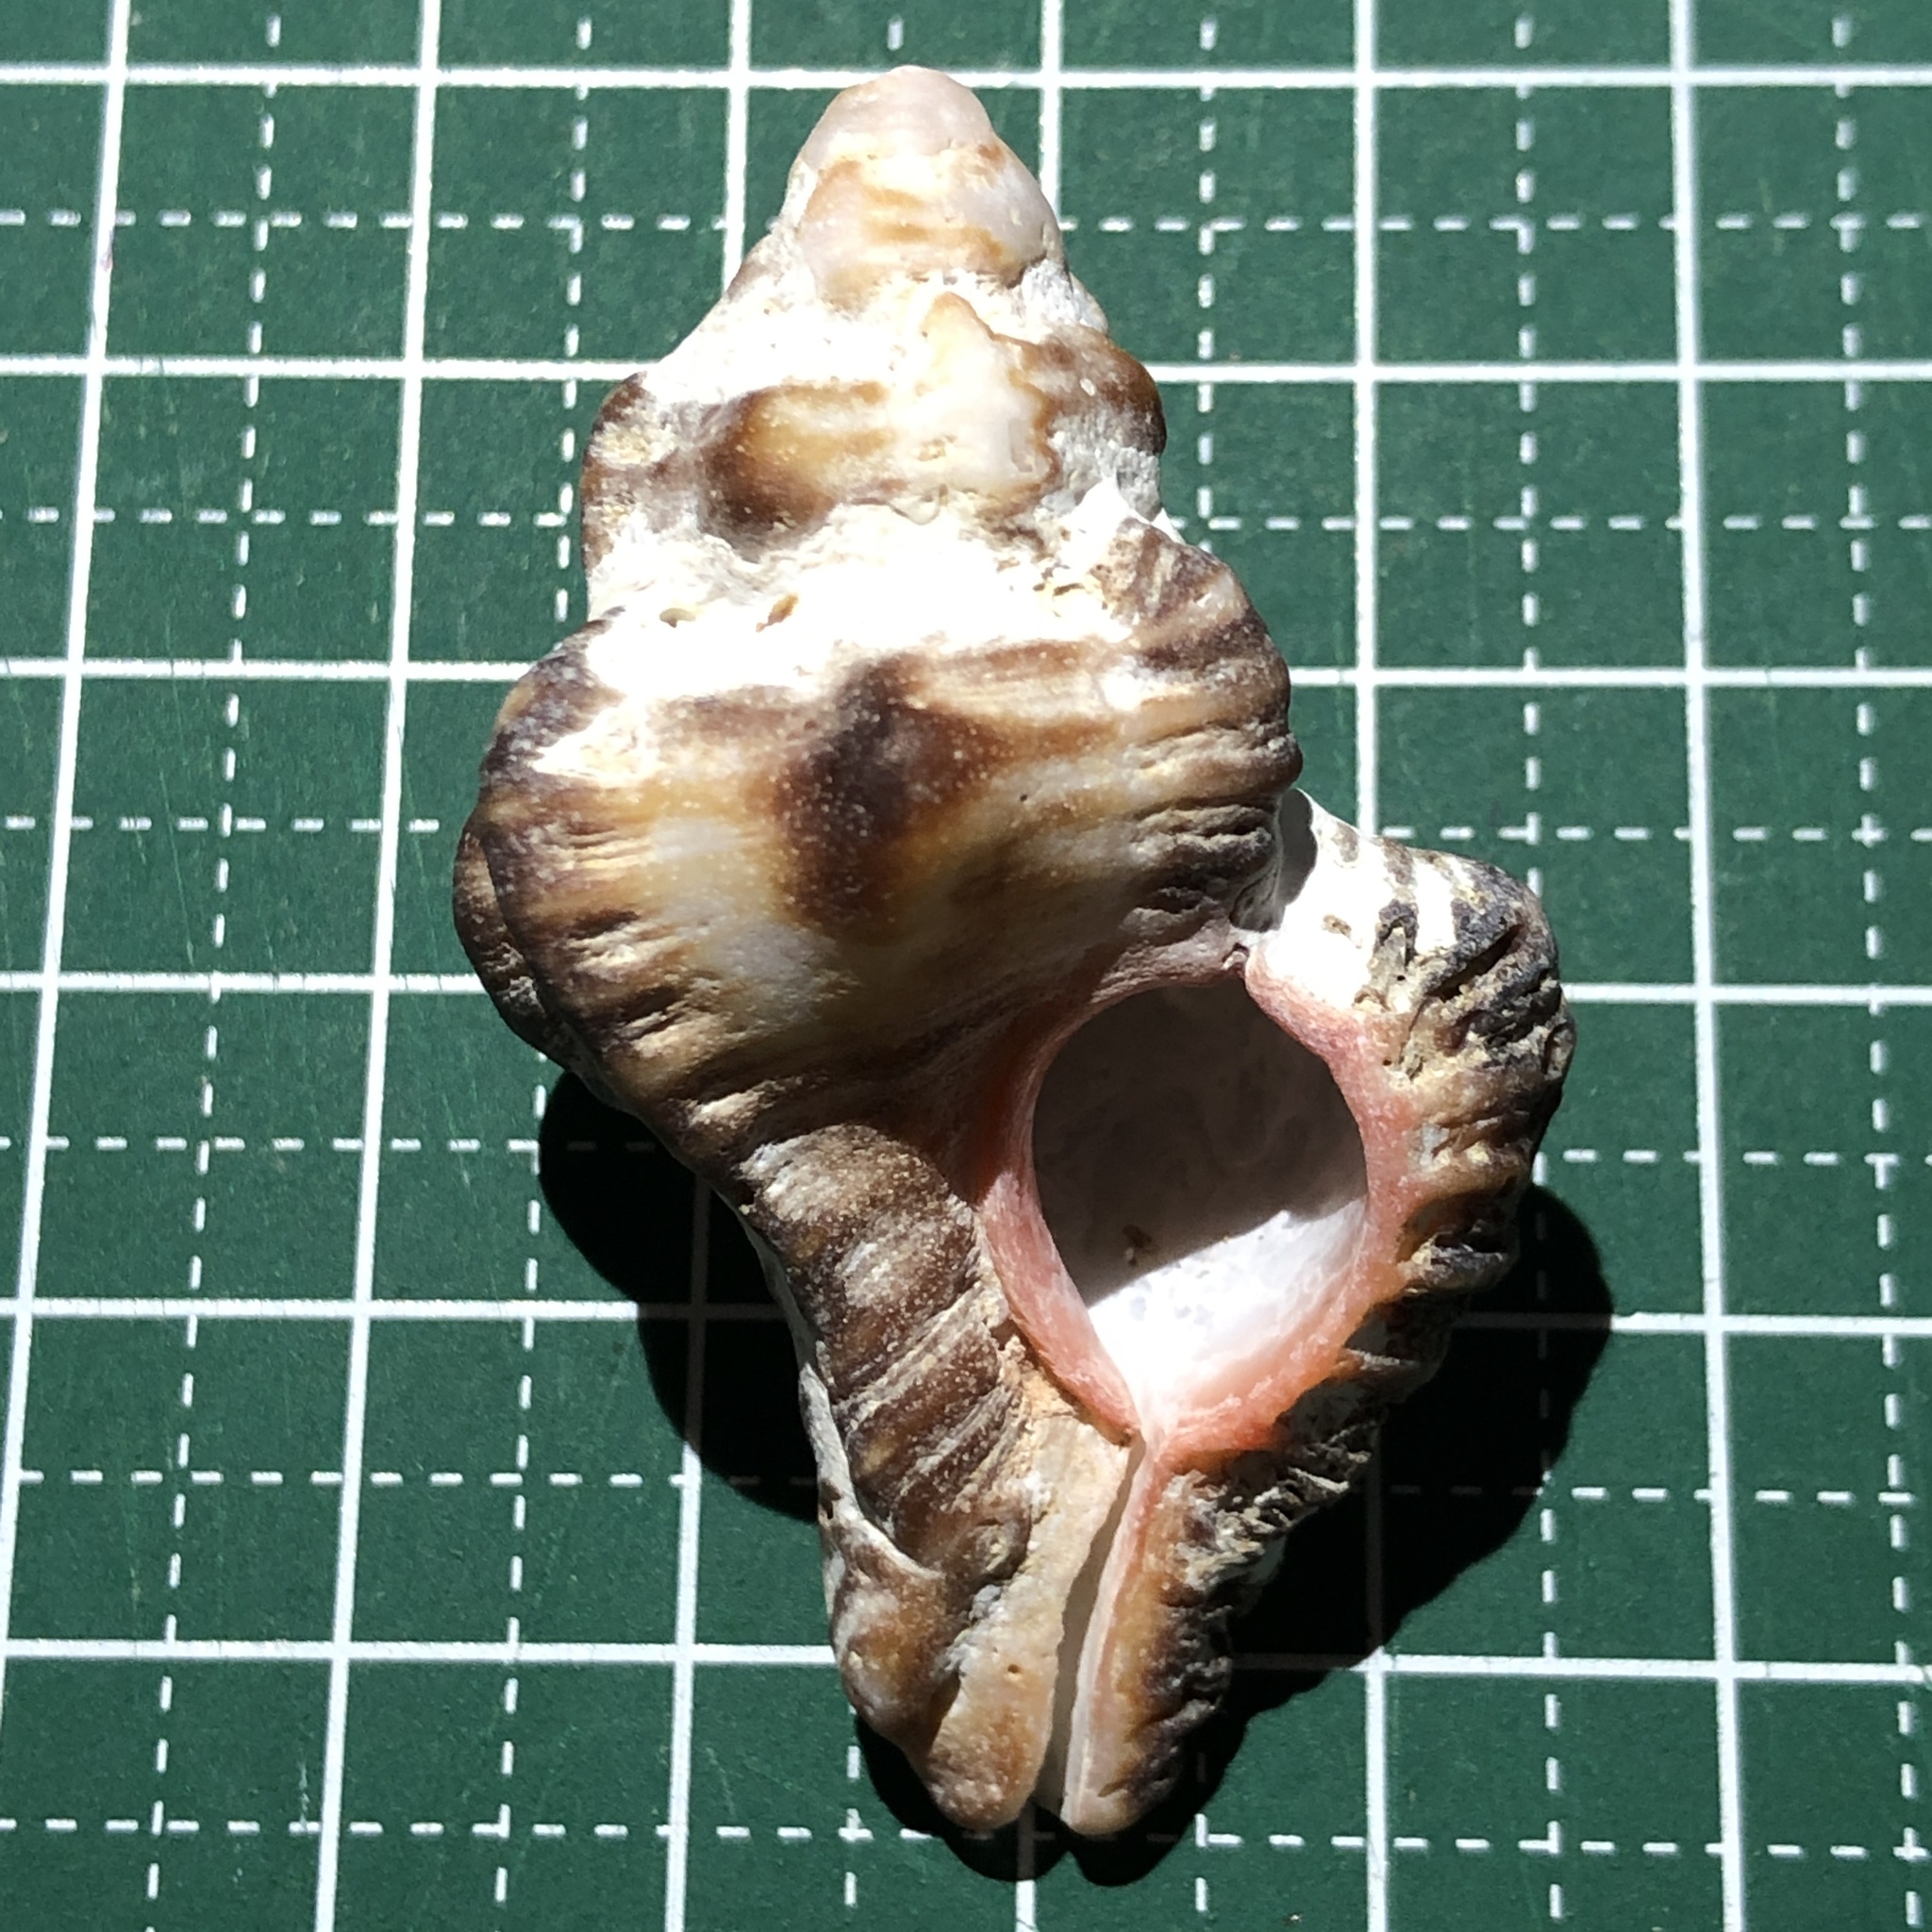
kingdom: Animalia
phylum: Mollusca
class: Gastropoda
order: Neogastropoda
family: Muricidae
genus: Chicoreus
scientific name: Chicoreus brunneus
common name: Adusta murex
